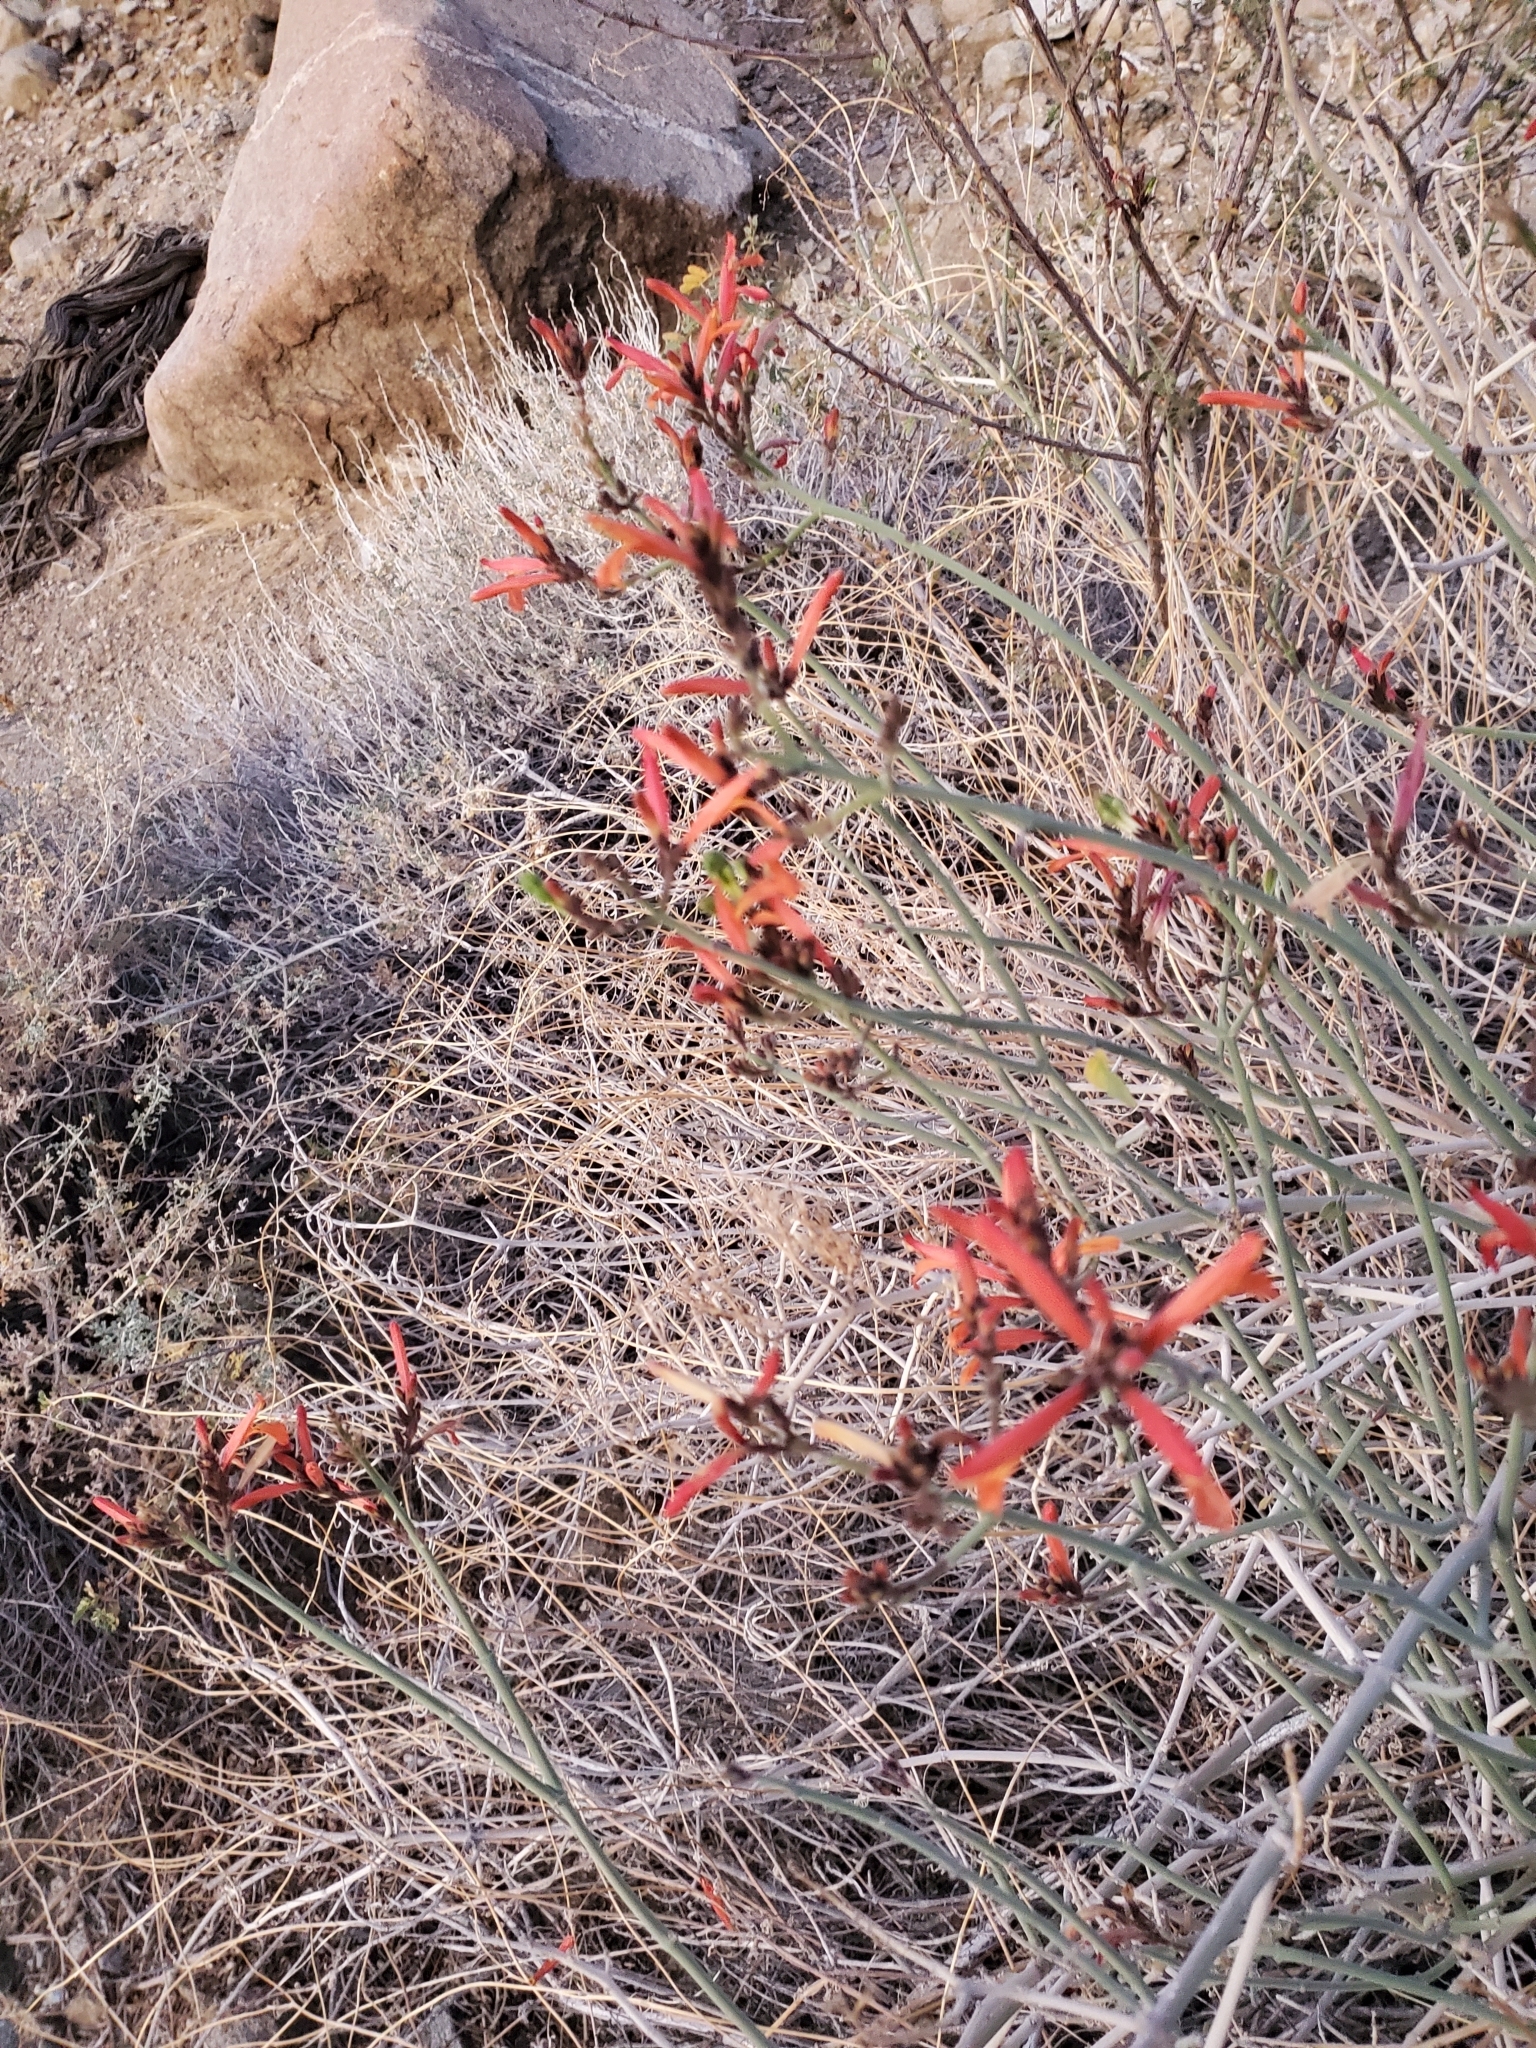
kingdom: Plantae
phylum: Tracheophyta
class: Magnoliopsida
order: Lamiales
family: Acanthaceae
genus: Justicia
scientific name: Justicia californica
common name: Chuparosa-honeysuckle
